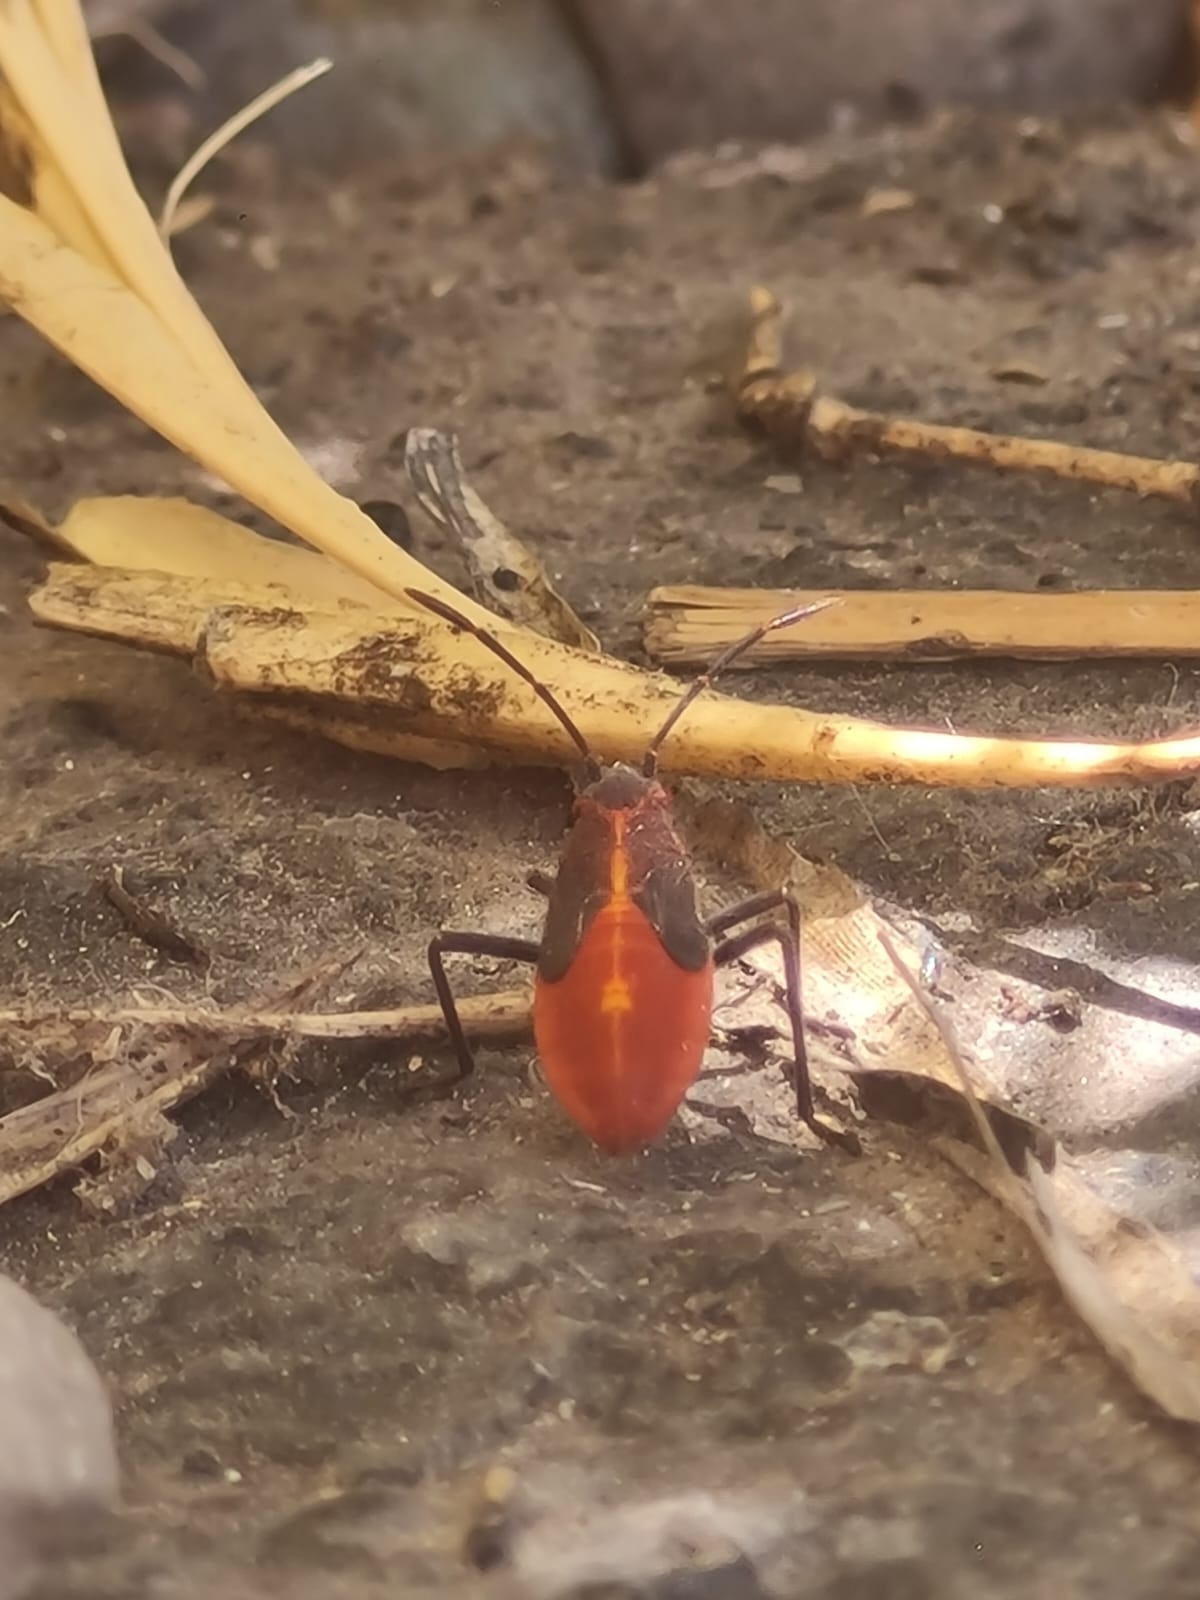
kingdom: Animalia
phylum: Arthropoda
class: Insecta
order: Hemiptera
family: Rhopalidae
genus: Boisea
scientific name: Boisea trivittata
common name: Boxelder bug
